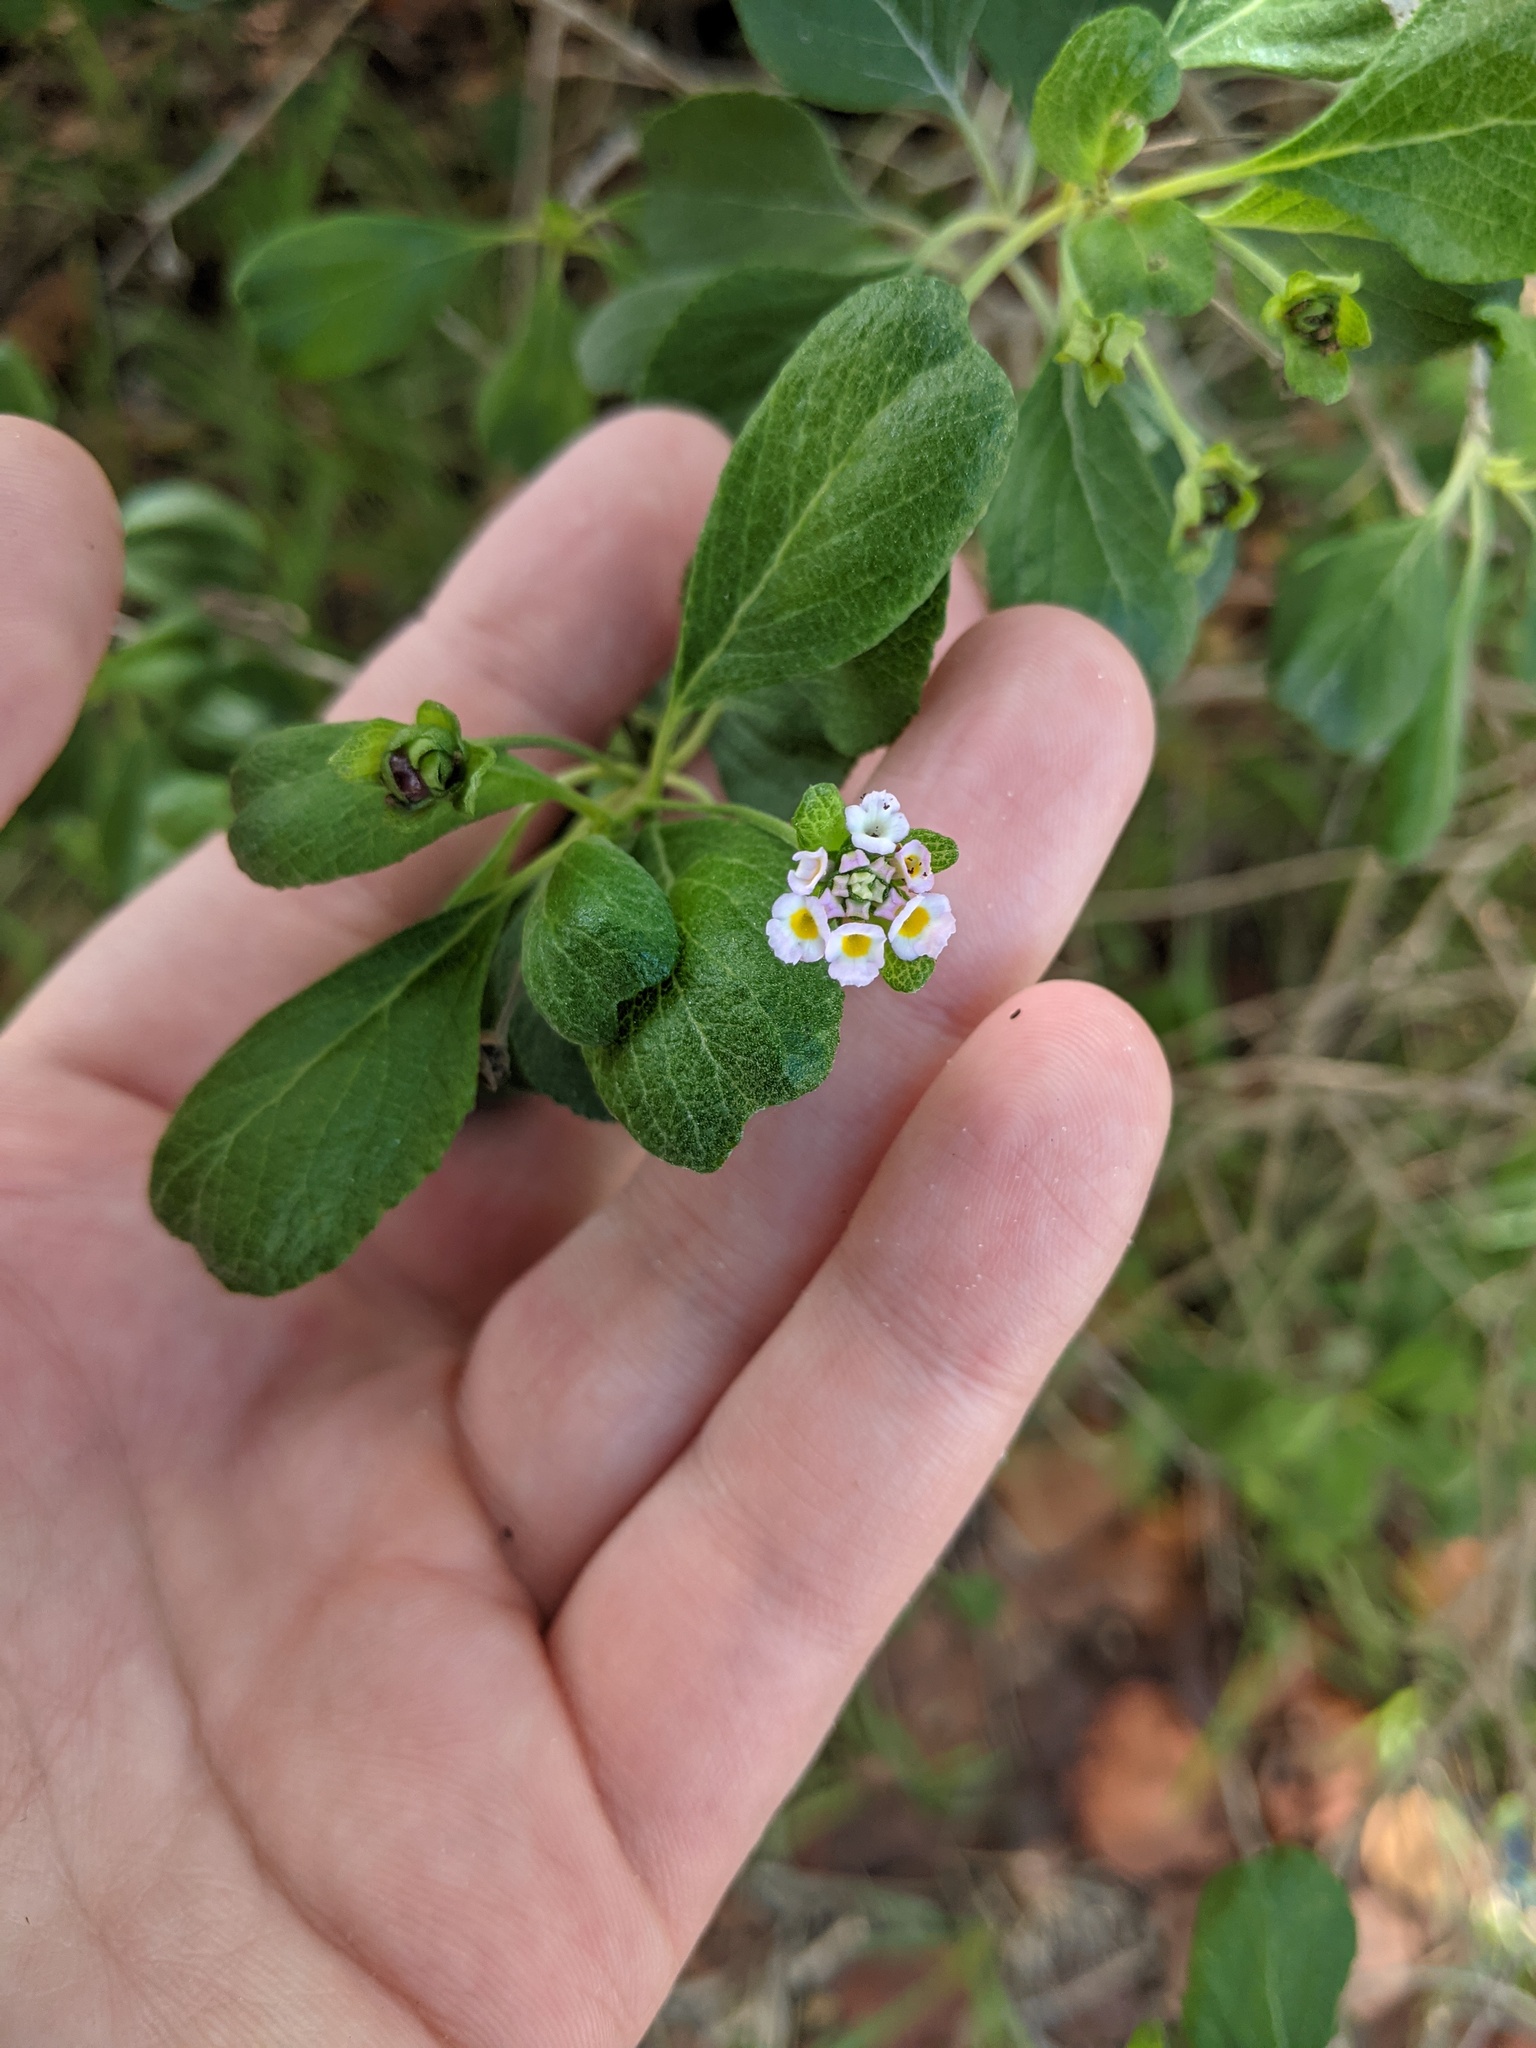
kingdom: Plantae
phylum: Tracheophyta
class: Magnoliopsida
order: Lamiales
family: Verbenaceae
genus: Lantana
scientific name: Lantana involucrata
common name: Black sage
